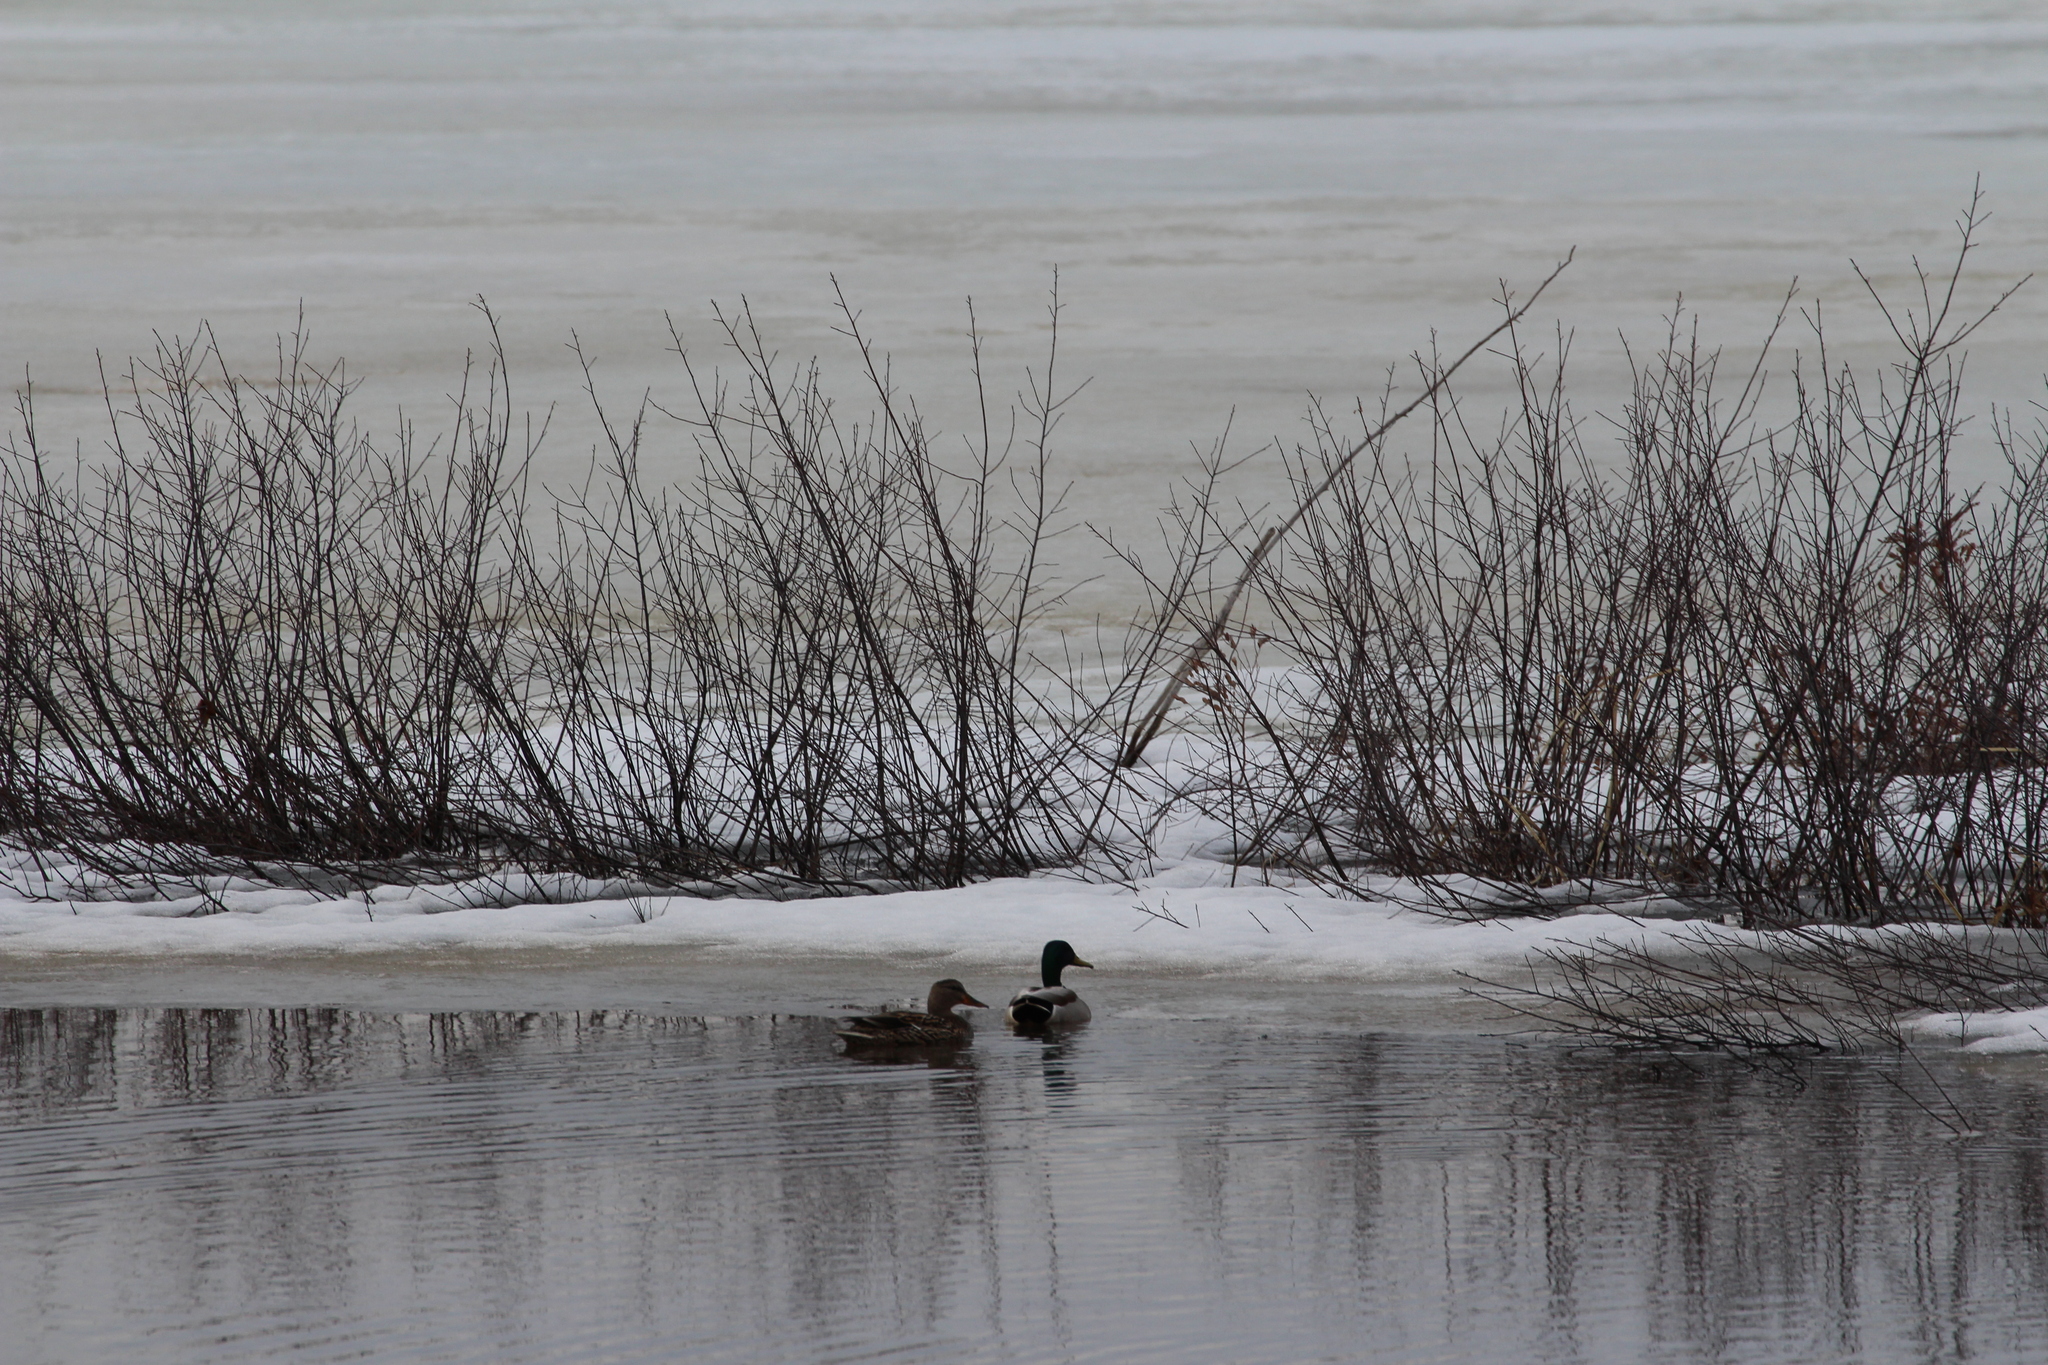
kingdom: Animalia
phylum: Chordata
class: Aves
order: Anseriformes
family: Anatidae
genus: Anas
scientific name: Anas platyrhynchos
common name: Mallard
